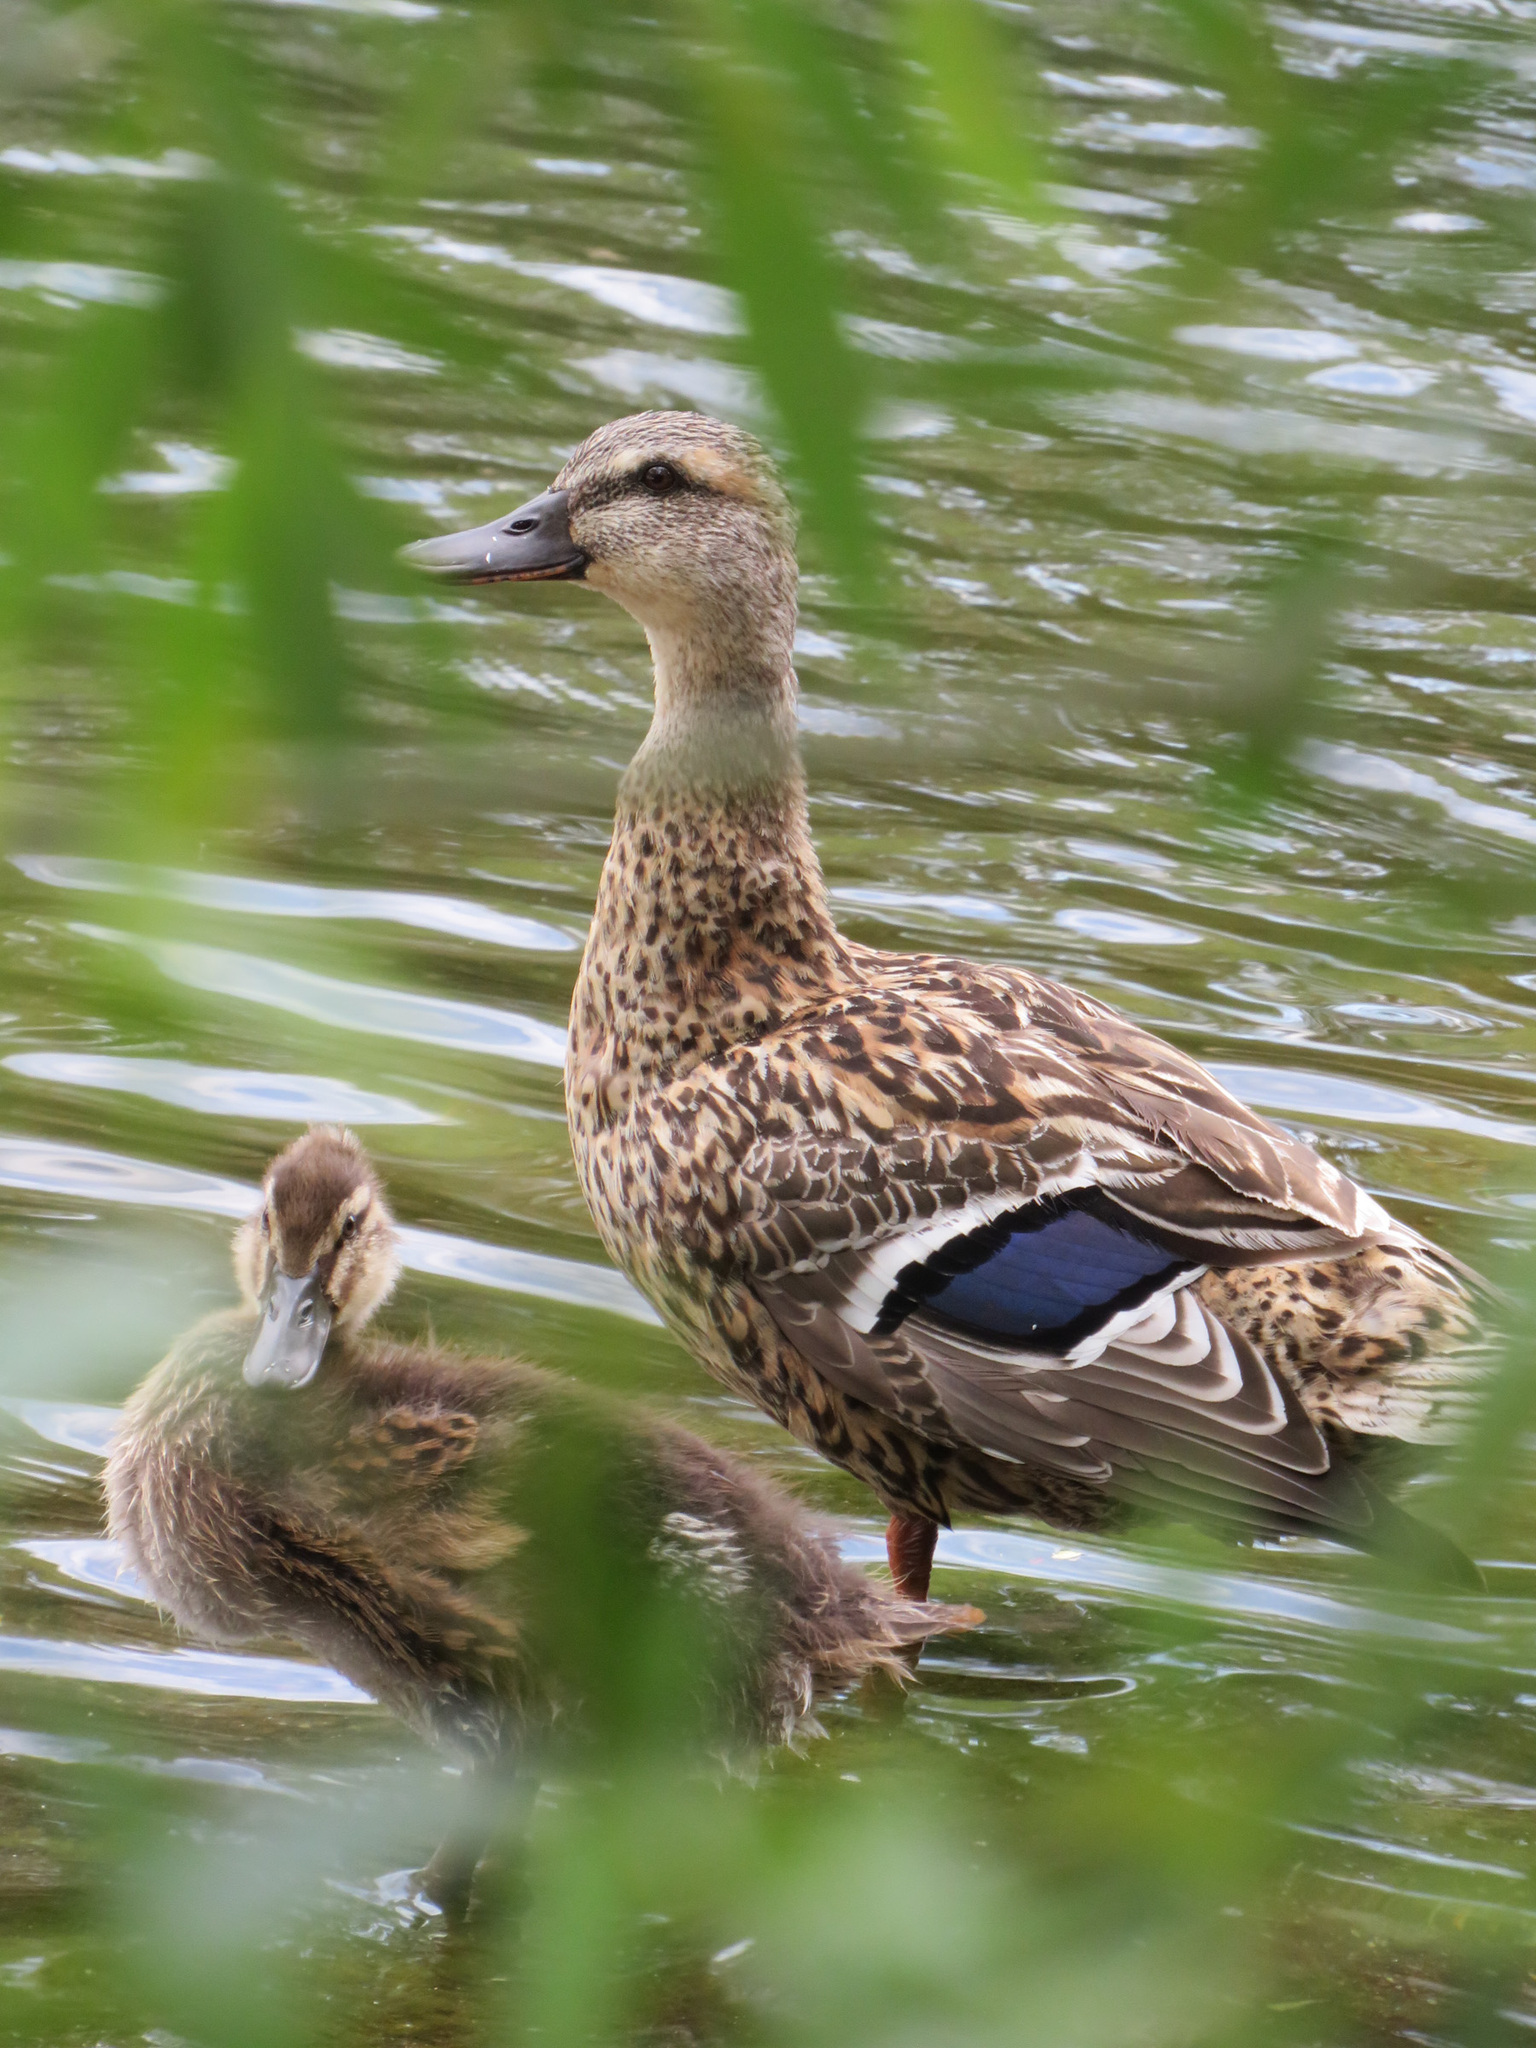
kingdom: Animalia
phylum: Chordata
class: Aves
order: Anseriformes
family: Anatidae
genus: Anas
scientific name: Anas platyrhynchos
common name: Mallard
